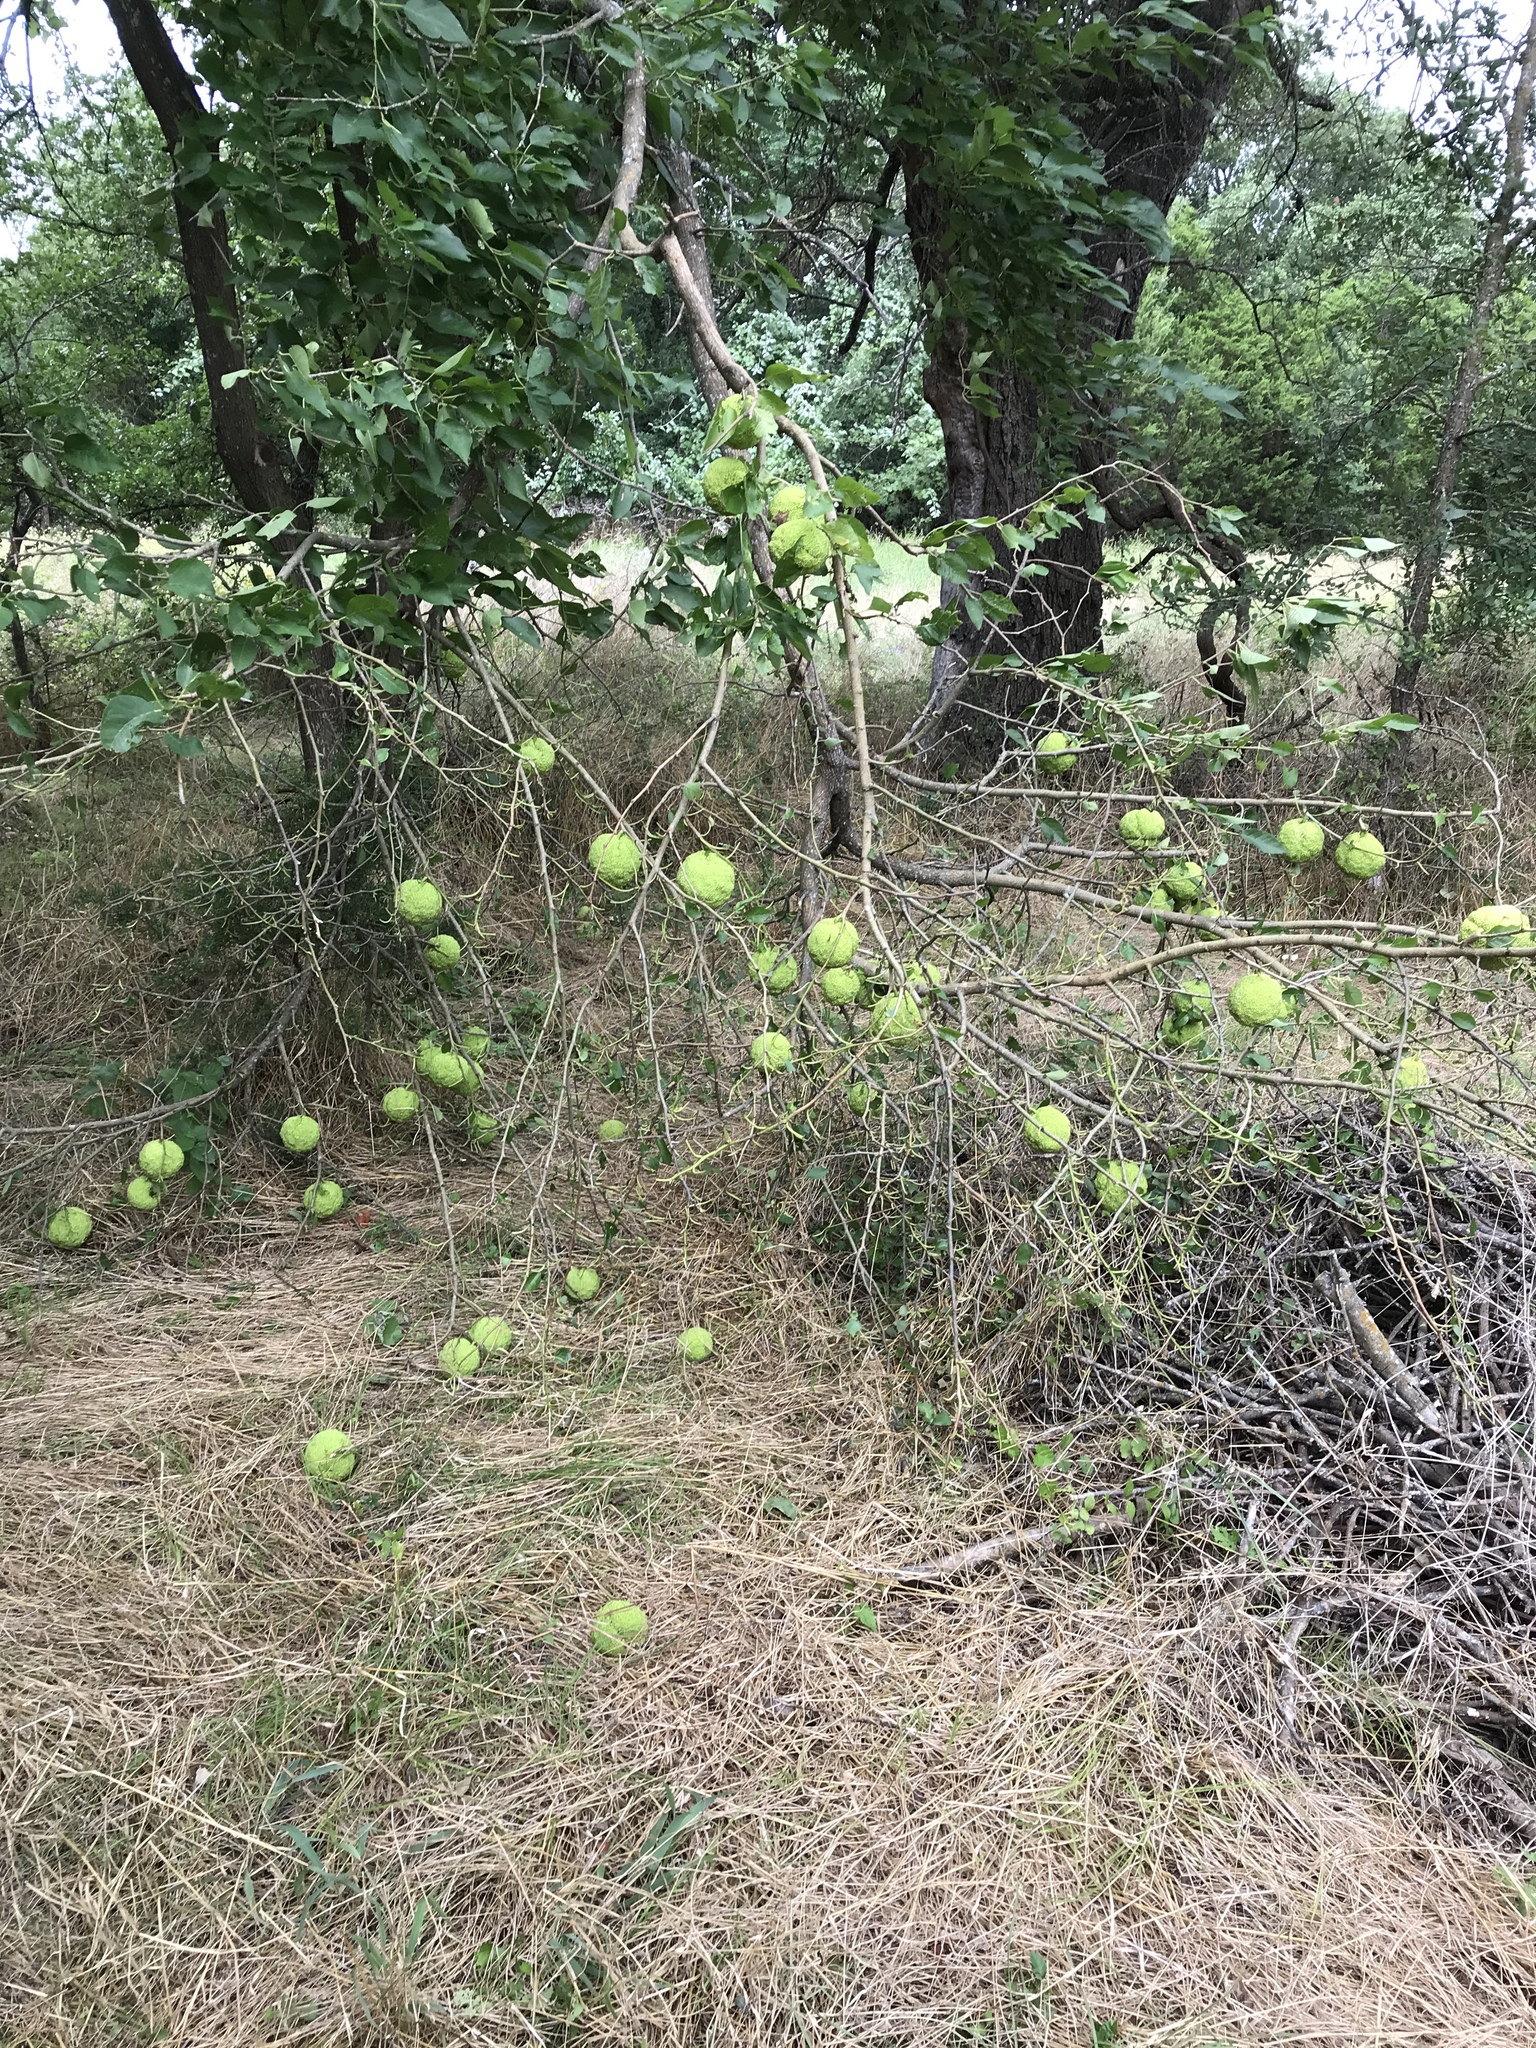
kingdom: Plantae
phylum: Tracheophyta
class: Magnoliopsida
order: Rosales
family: Moraceae
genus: Maclura
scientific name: Maclura pomifera
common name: Osage-orange
